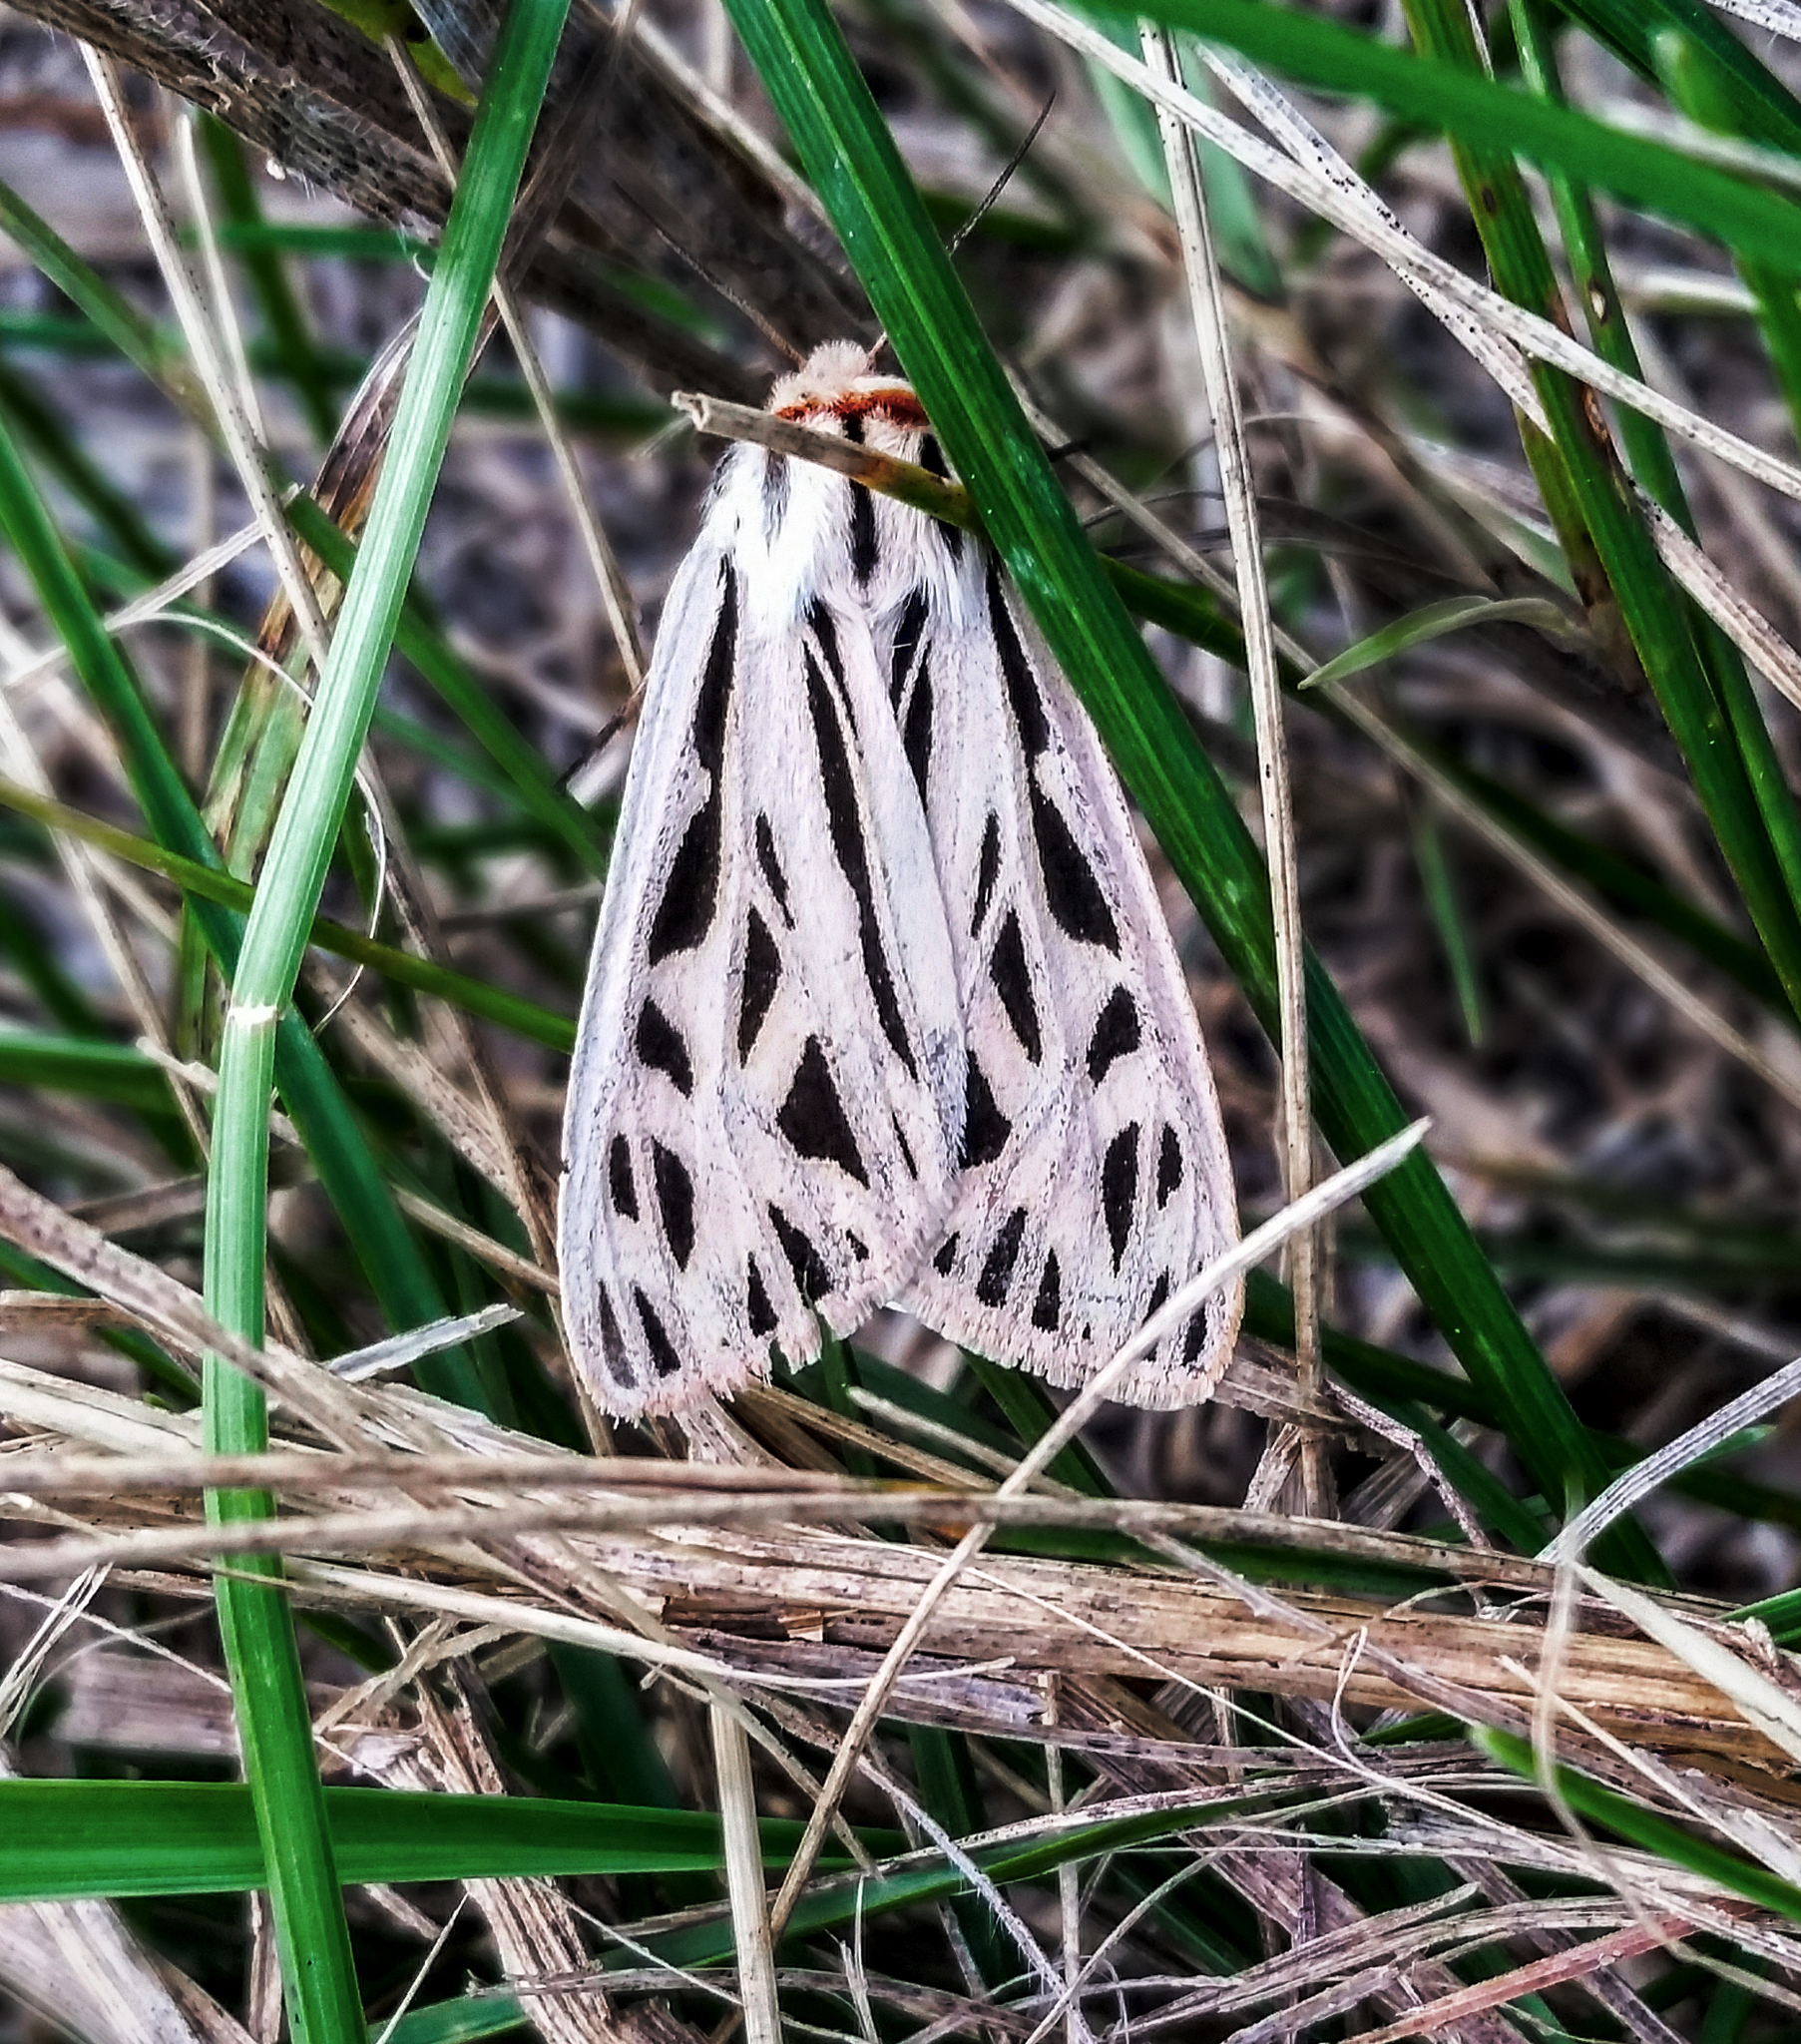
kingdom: Animalia
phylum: Arthropoda
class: Insecta
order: Lepidoptera
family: Erebidae
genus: Apantesis
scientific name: Apantesis arge
